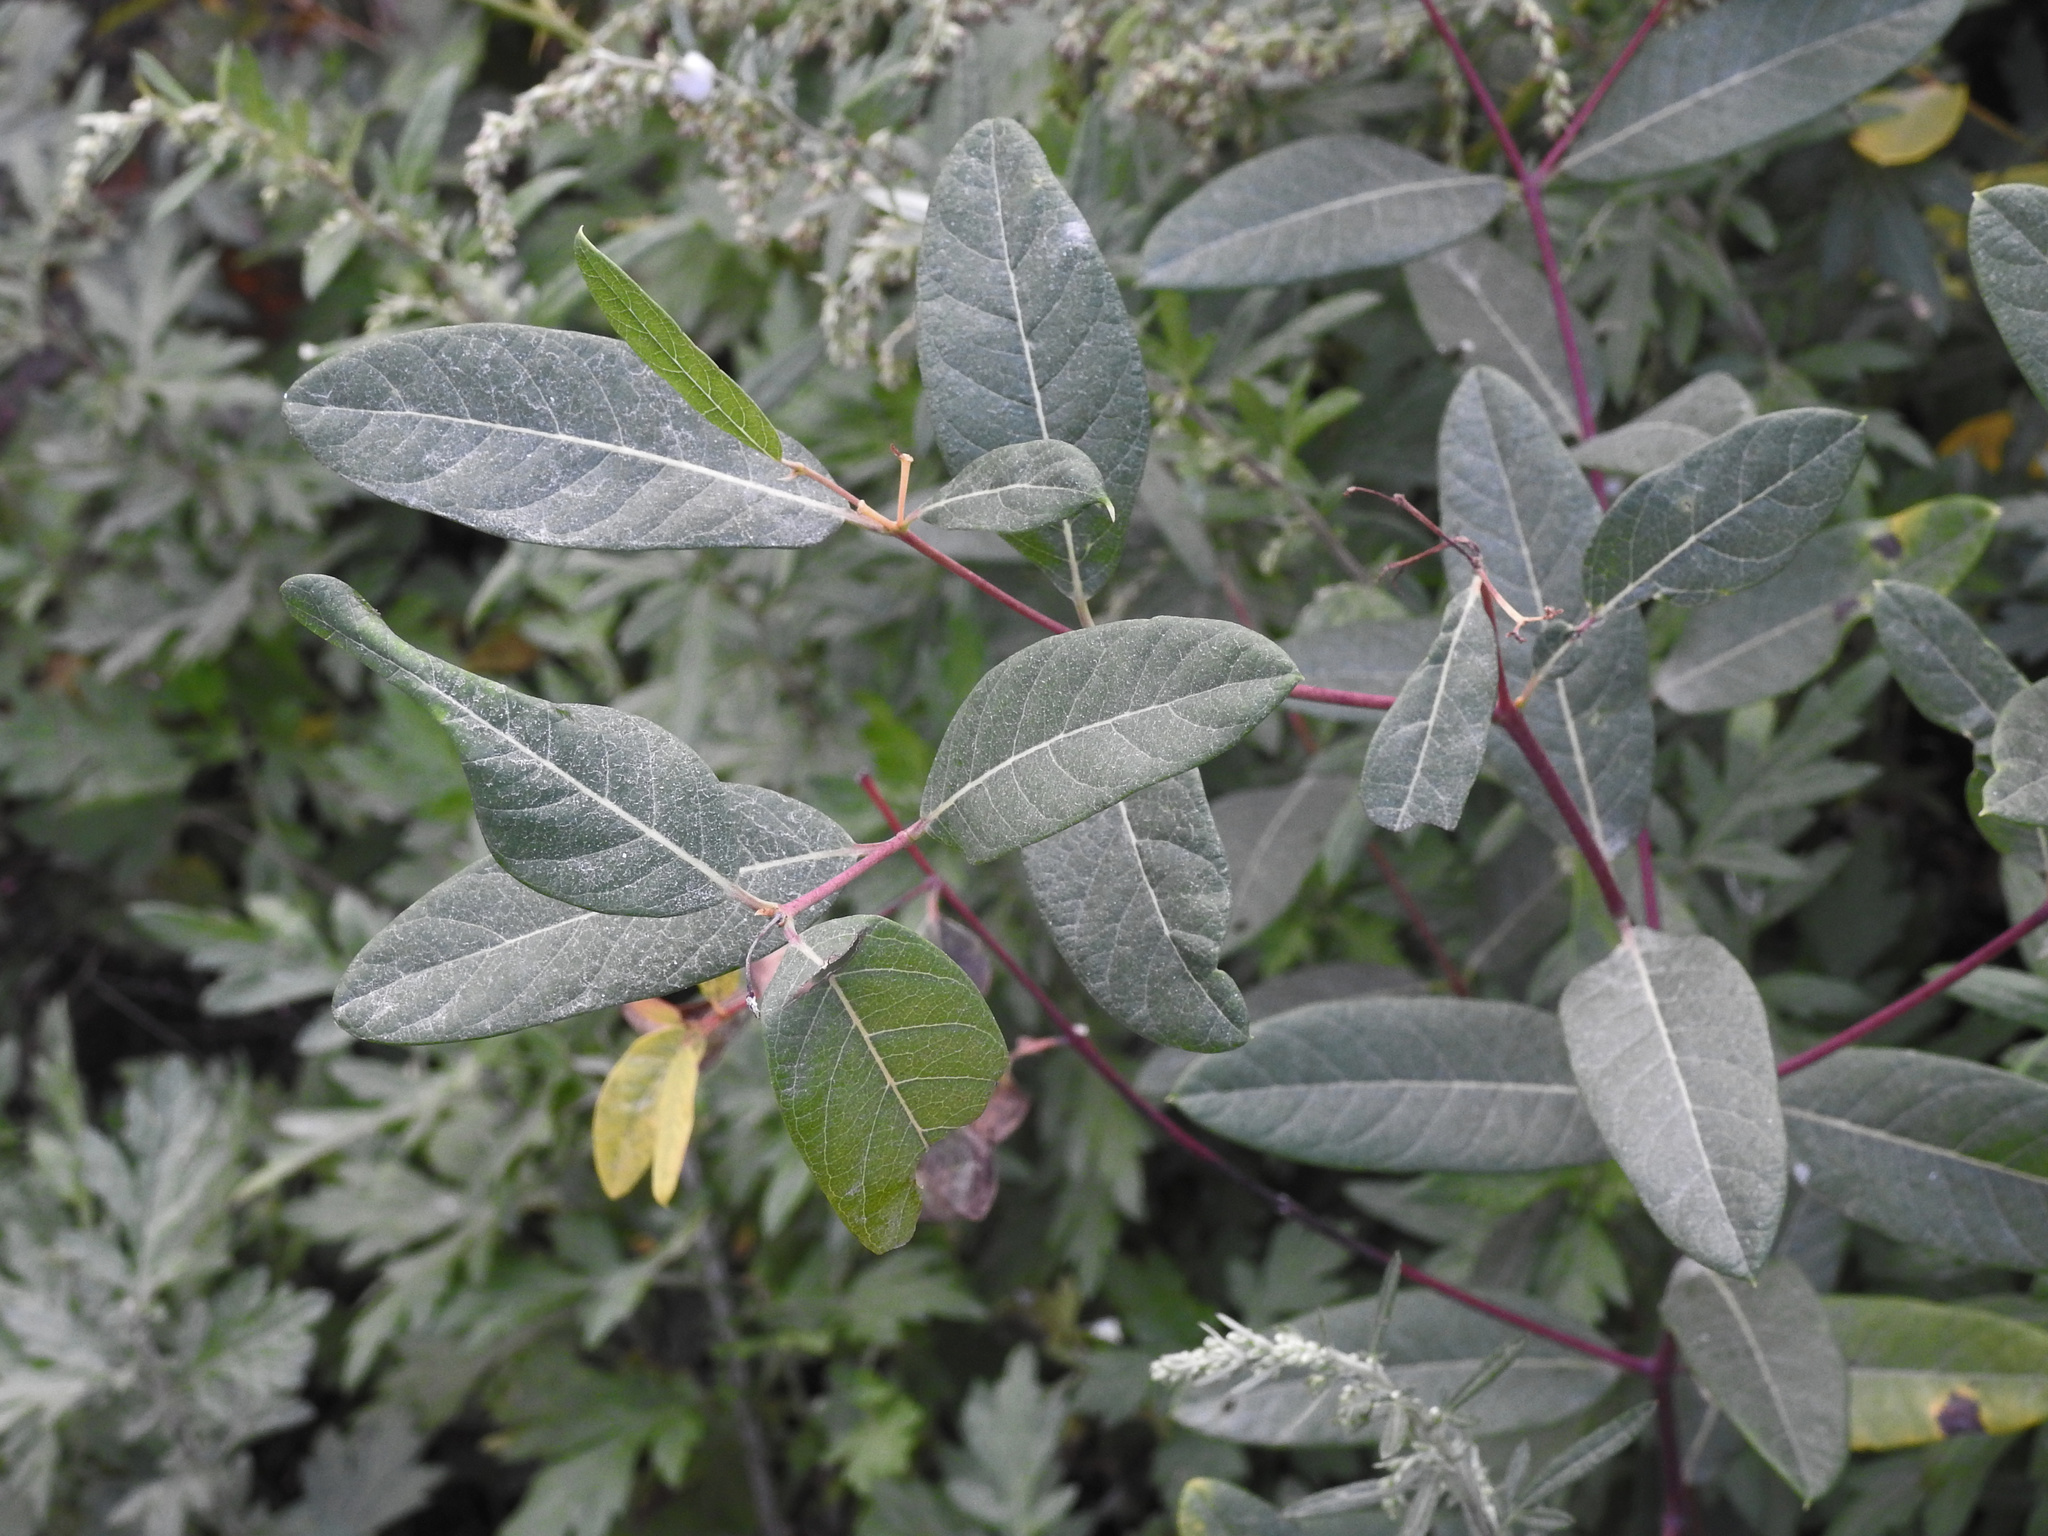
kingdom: Plantae
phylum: Tracheophyta
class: Magnoliopsida
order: Gentianales
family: Apocynaceae
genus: Apocynum
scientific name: Apocynum cannabinum
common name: Hemp dogbane
